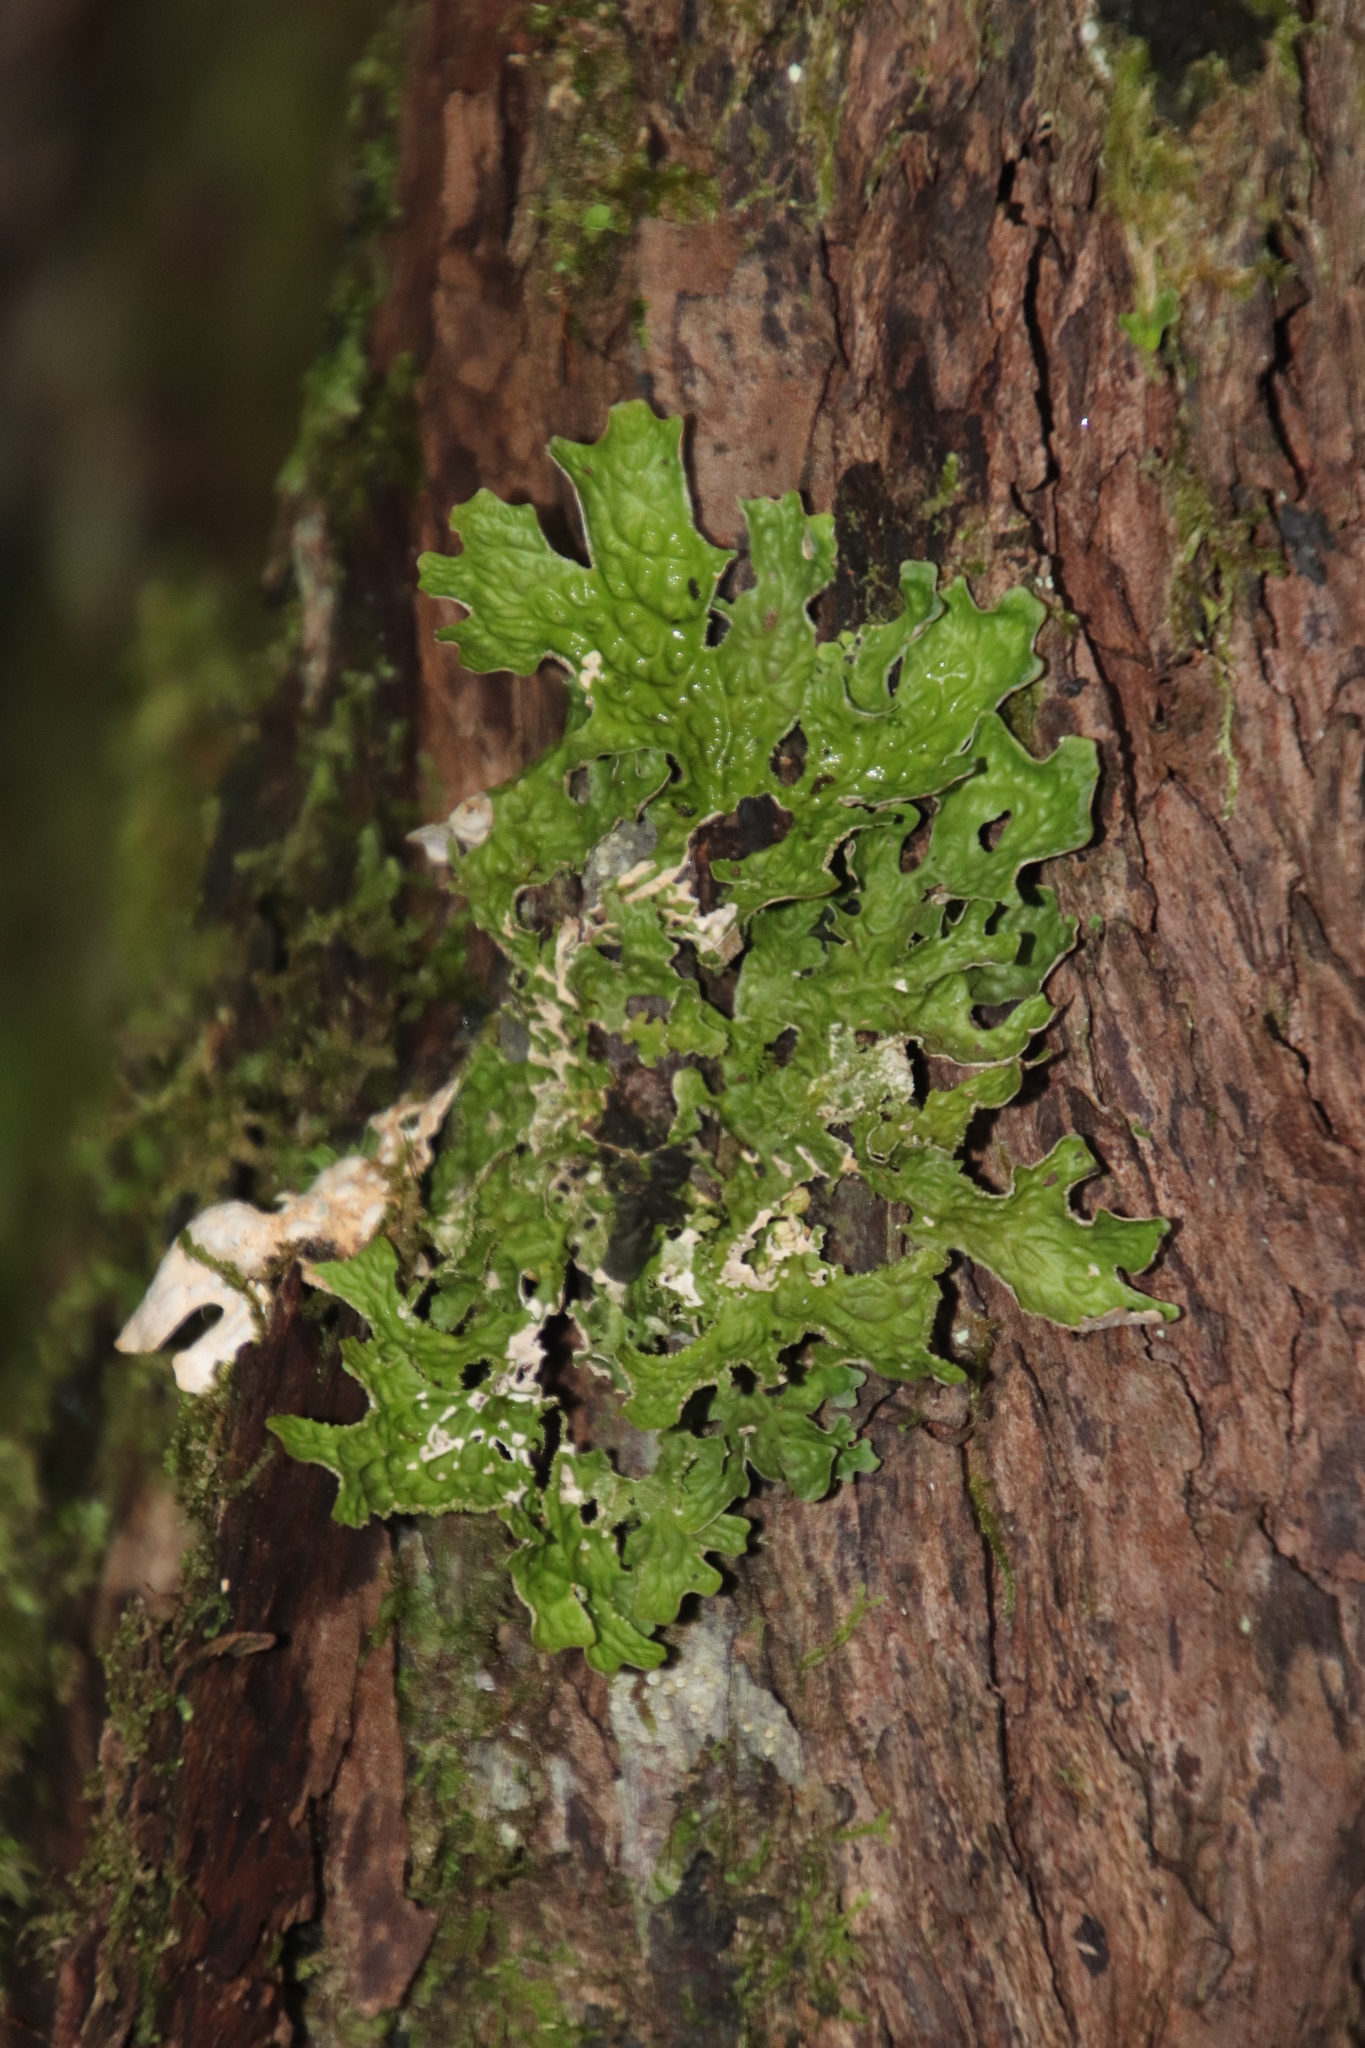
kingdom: Fungi
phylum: Ascomycota
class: Lecanoromycetes
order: Peltigerales
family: Lobariaceae
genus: Lobaria
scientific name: Lobaria pulmonaria
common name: Lungwort
